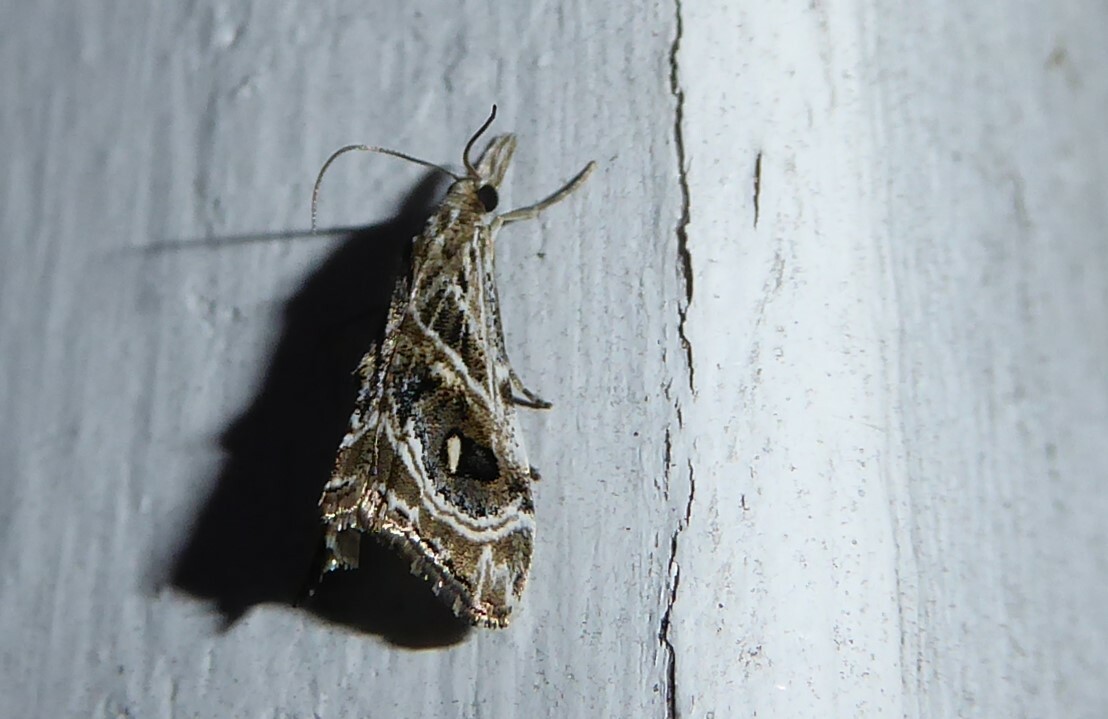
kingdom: Animalia
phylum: Arthropoda
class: Insecta
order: Lepidoptera
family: Crambidae
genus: Gadira
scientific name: Gadira acerella
